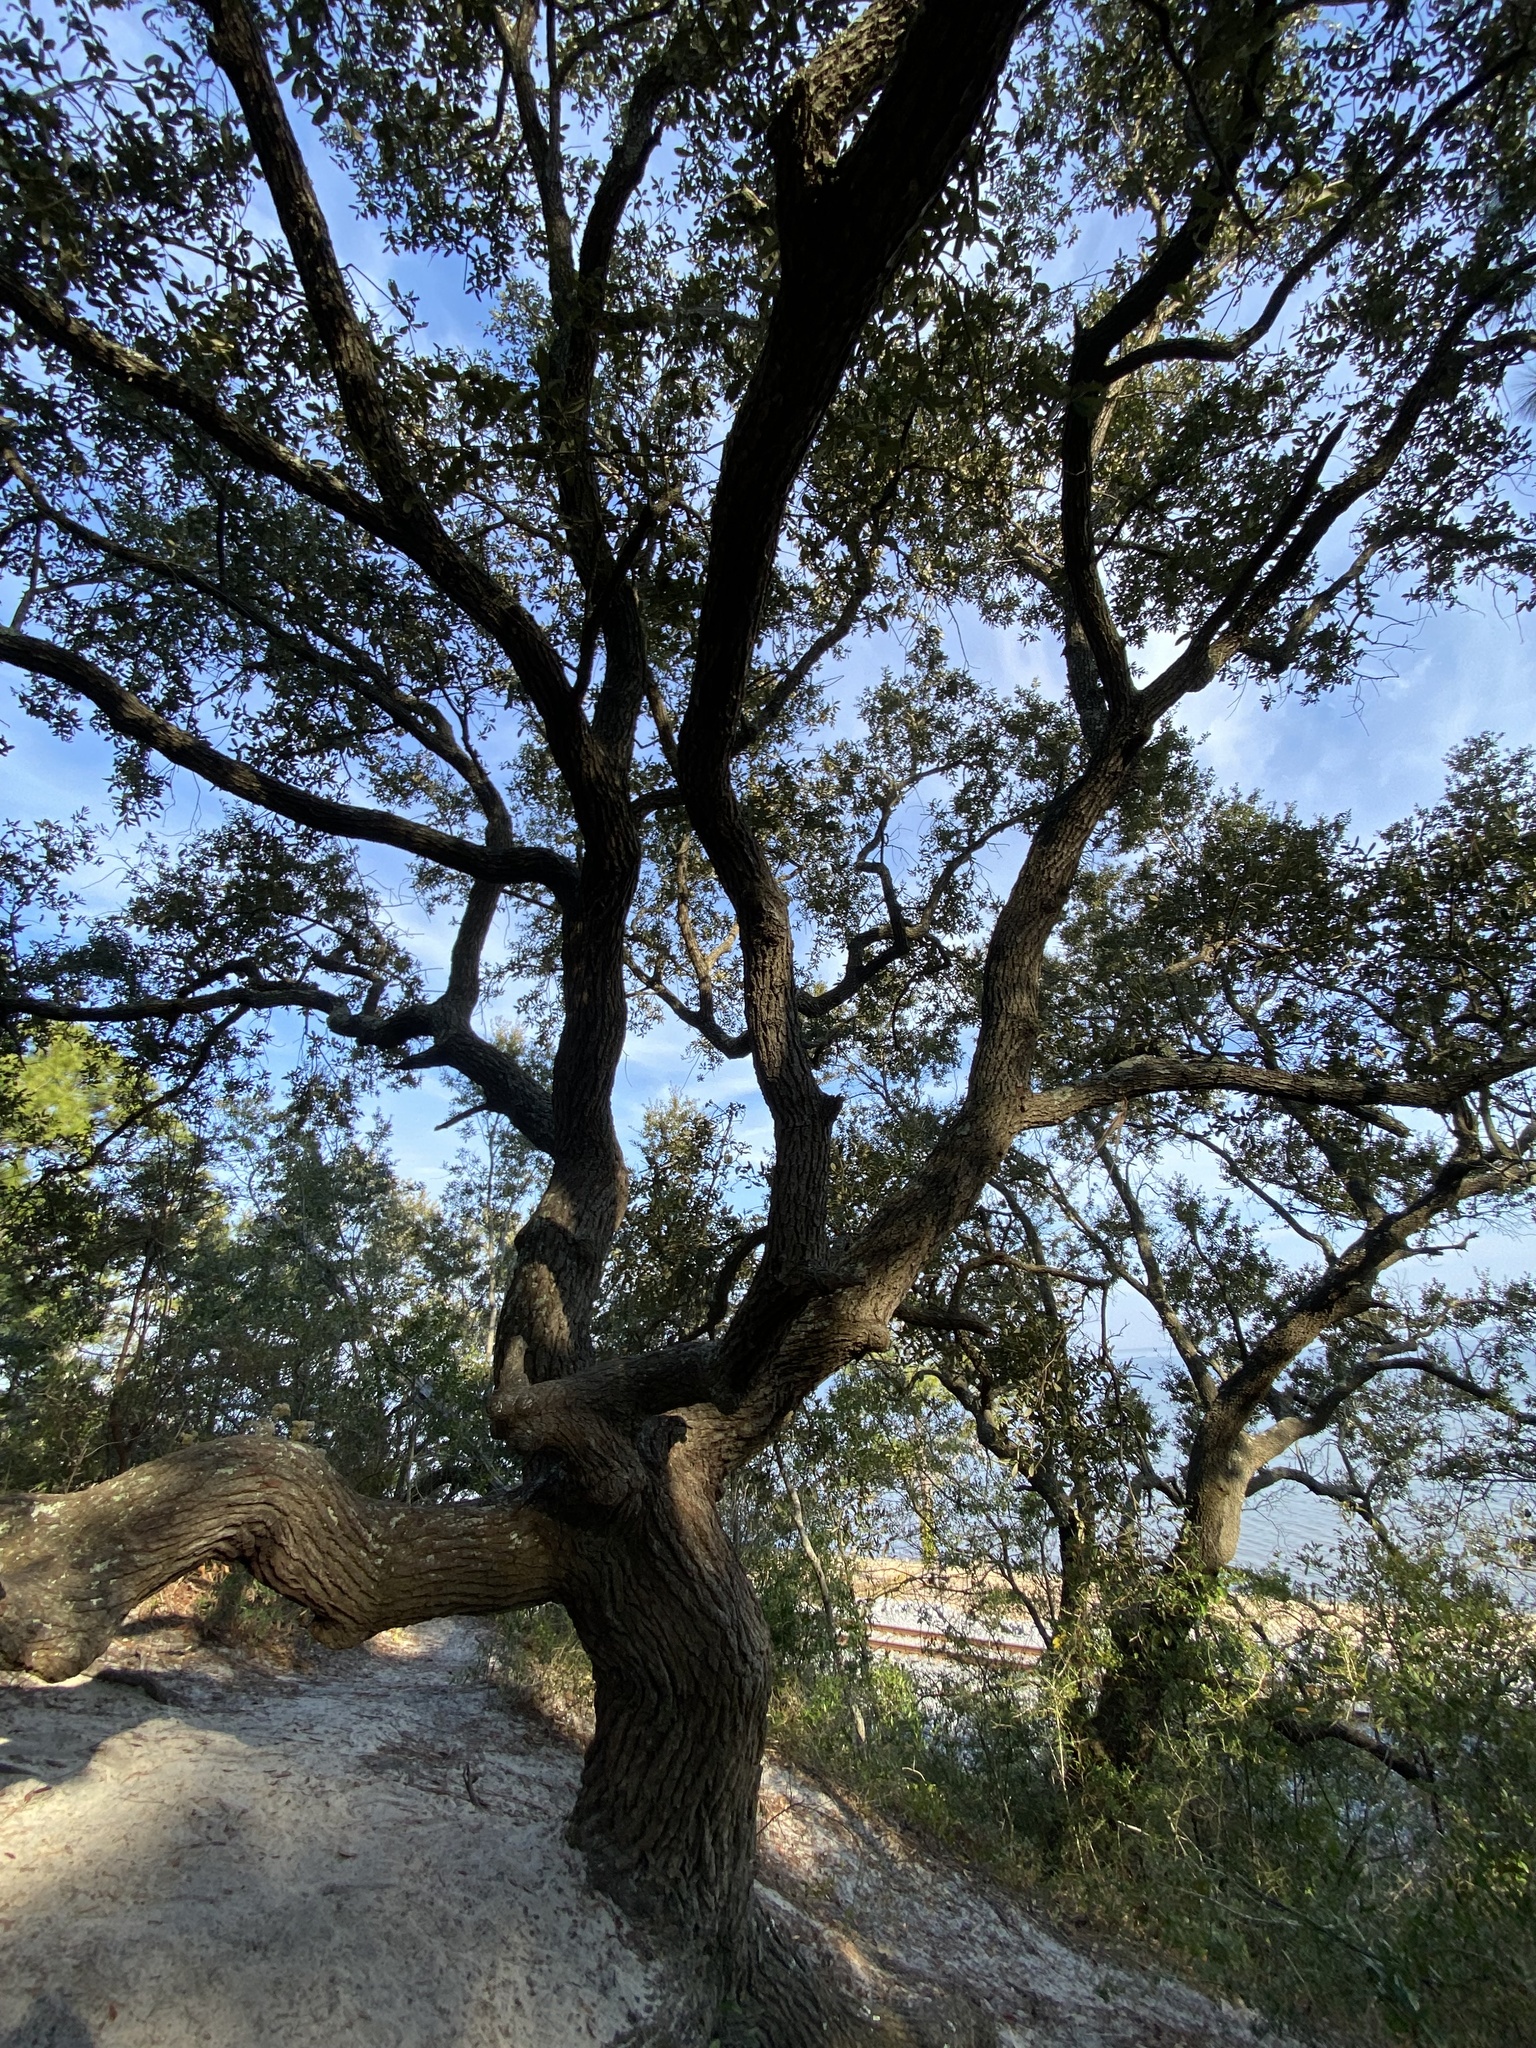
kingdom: Plantae
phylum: Tracheophyta
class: Magnoliopsida
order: Fagales
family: Fagaceae
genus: Quercus
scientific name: Quercus geminata
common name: Sand live oak
